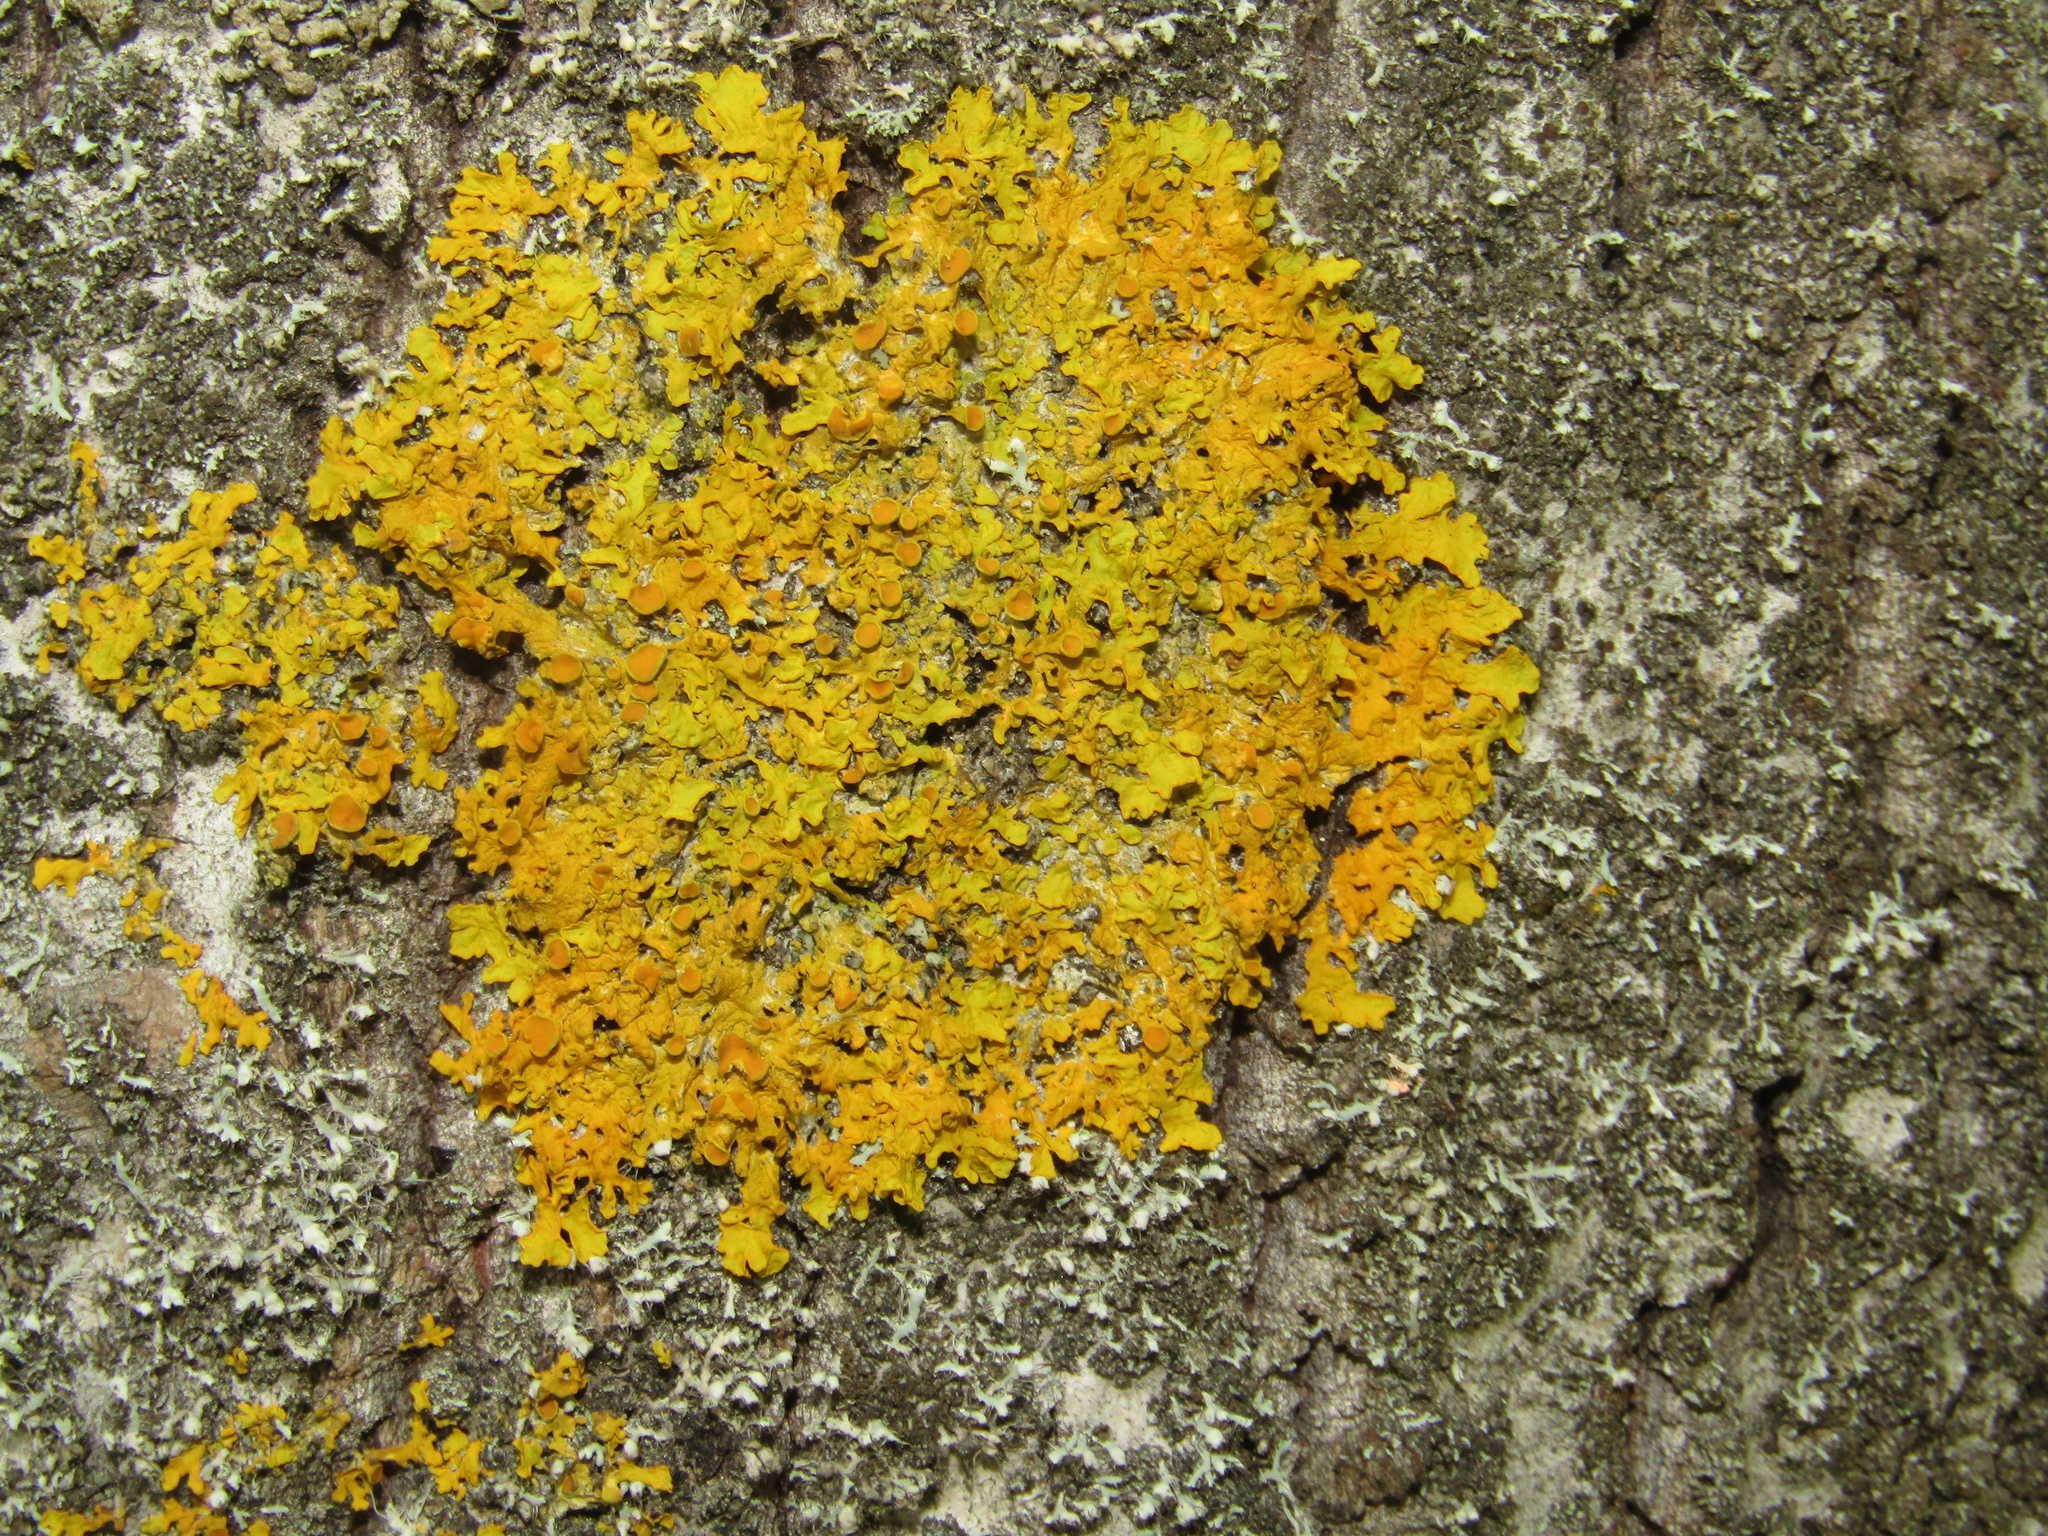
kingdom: Fungi
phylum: Ascomycota
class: Lecanoromycetes
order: Teloschistales
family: Teloschistaceae
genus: Xanthoria
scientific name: Xanthoria parietina
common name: Common orange lichen
